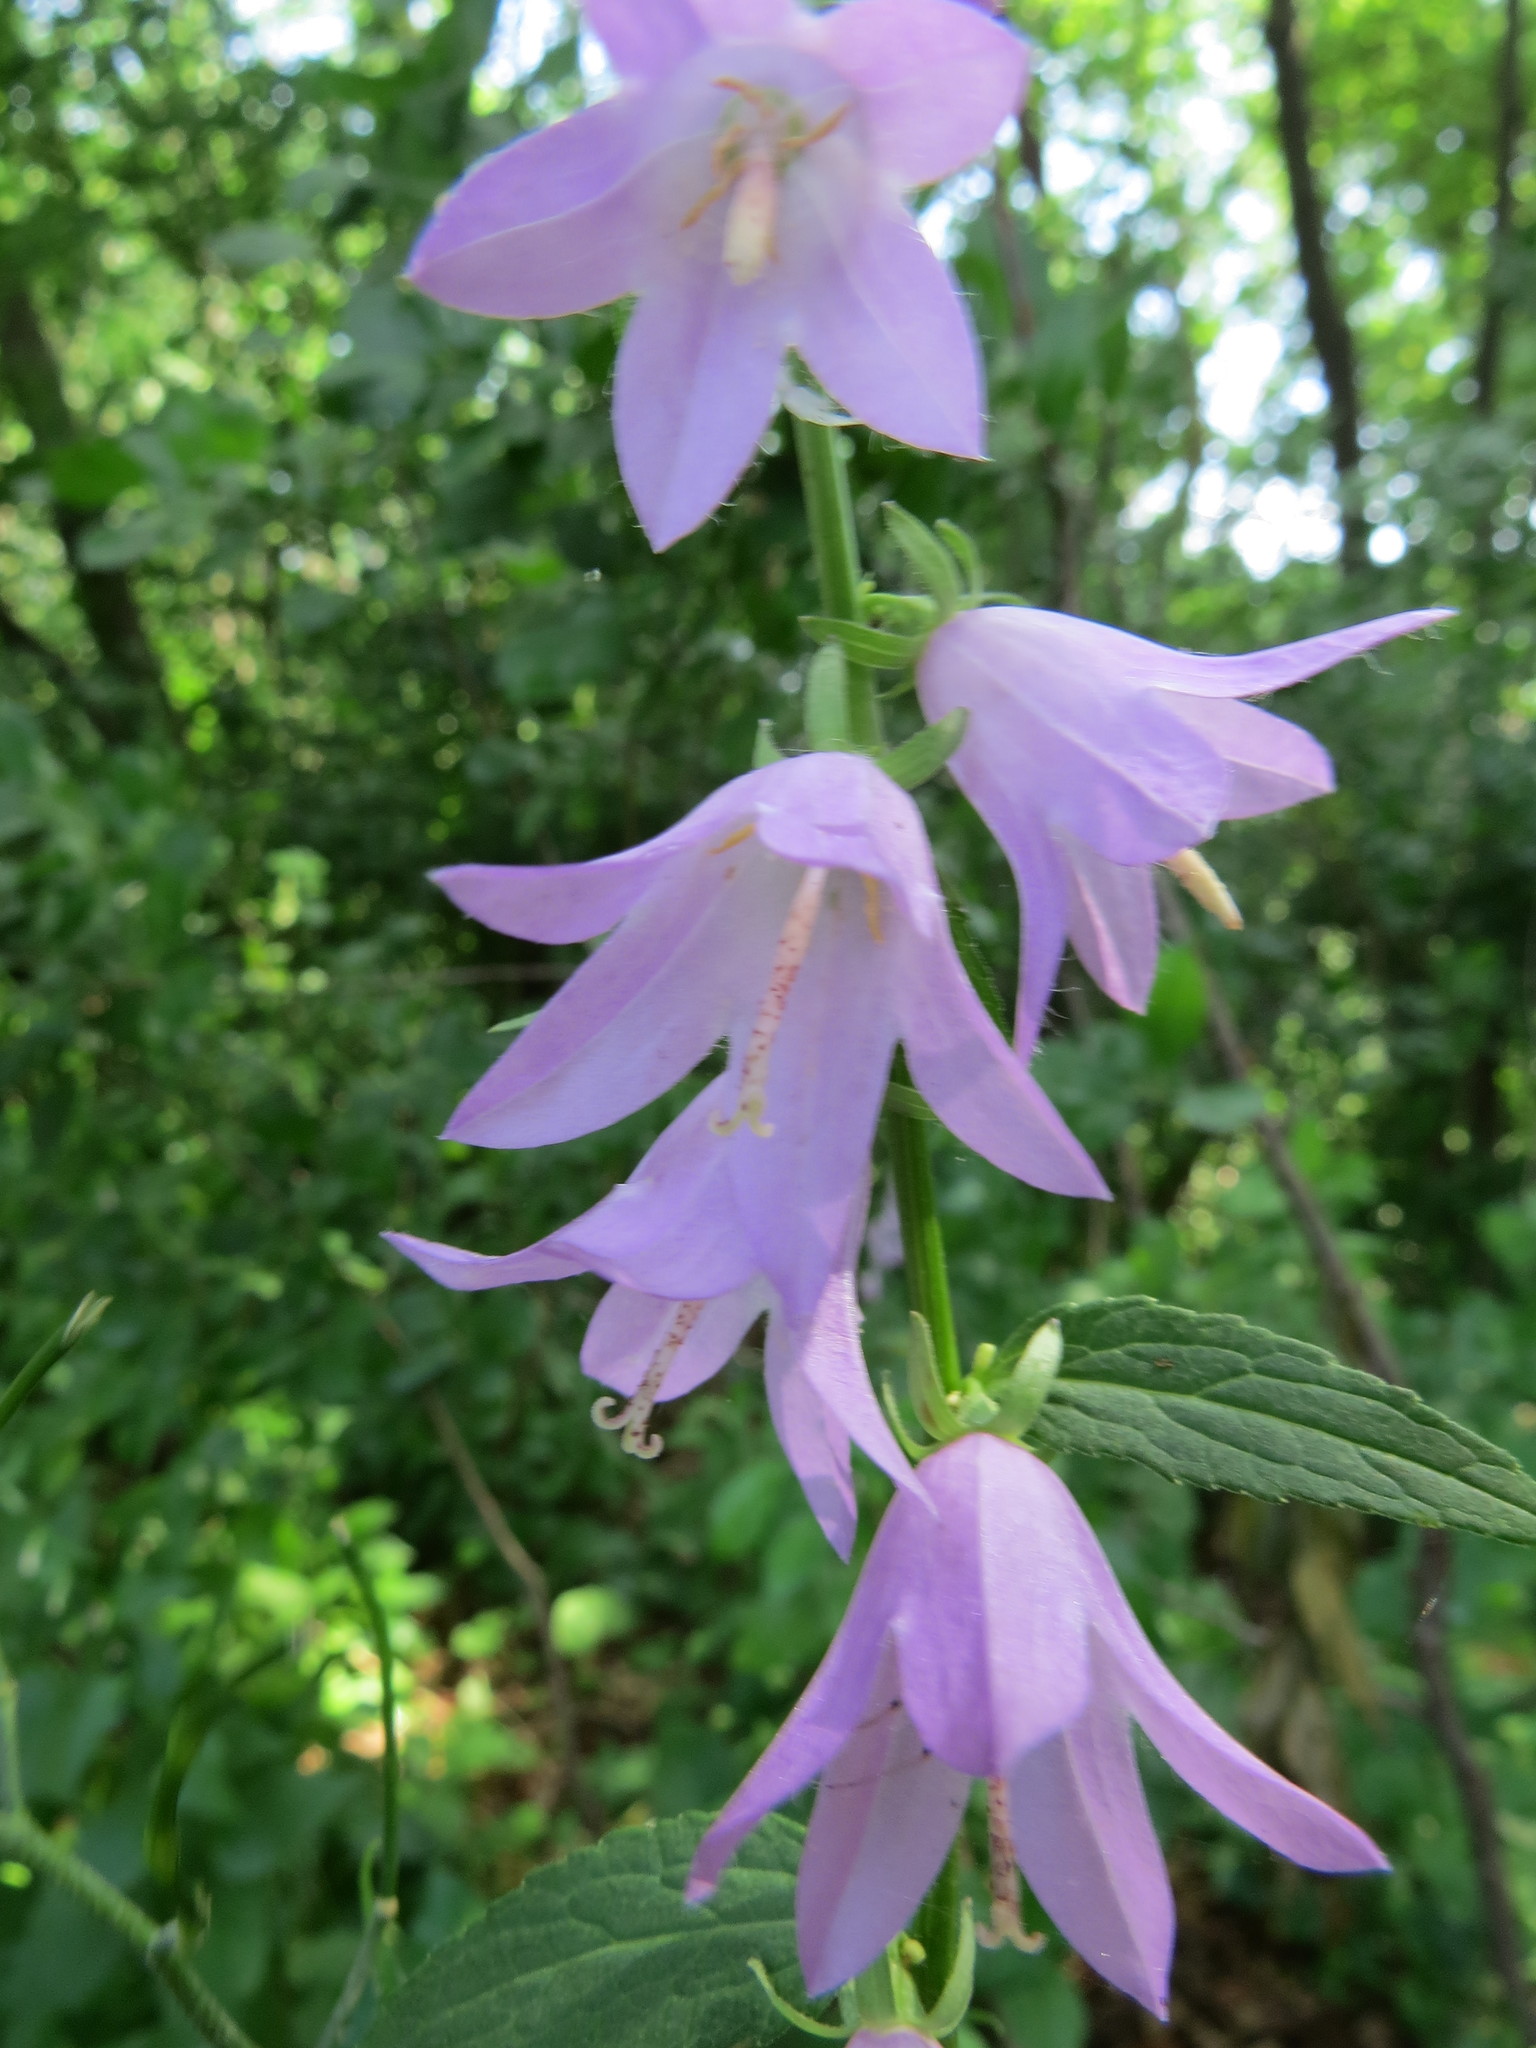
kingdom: Plantae
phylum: Tracheophyta
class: Magnoliopsida
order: Asterales
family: Campanulaceae
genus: Campanula
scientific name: Campanula rapunculoides
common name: Creeping bellflower
